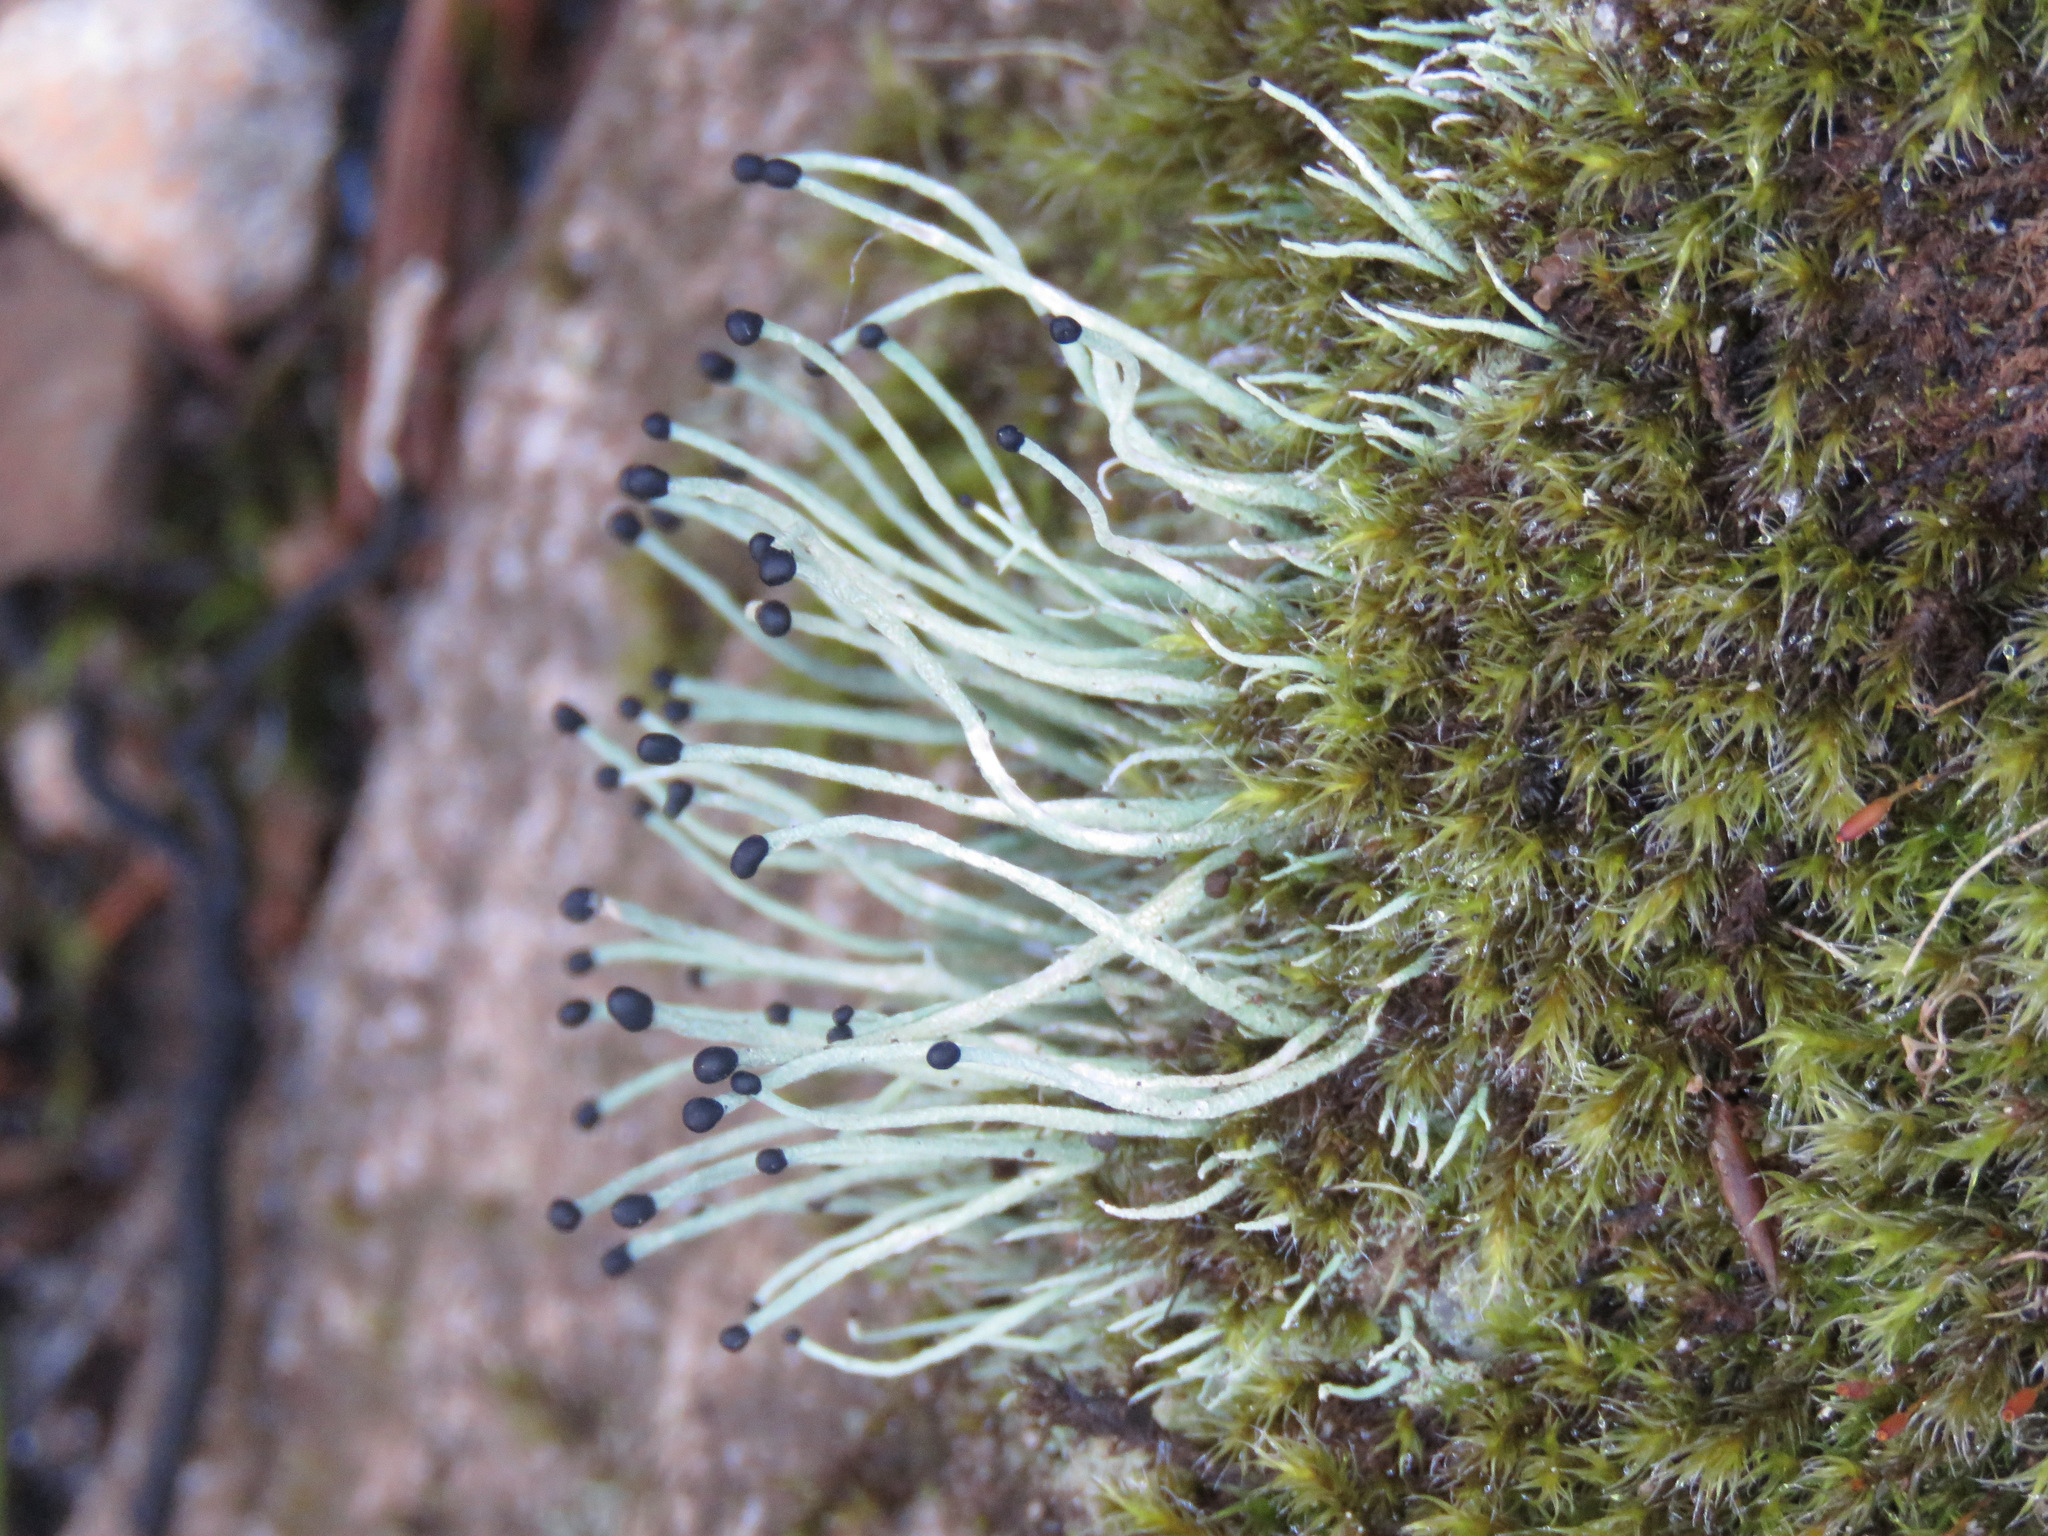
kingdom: Fungi
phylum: Ascomycota
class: Lecanoromycetes
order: Lecanorales
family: Cladoniaceae
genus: Pilophorus
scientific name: Pilophorus acicularis
